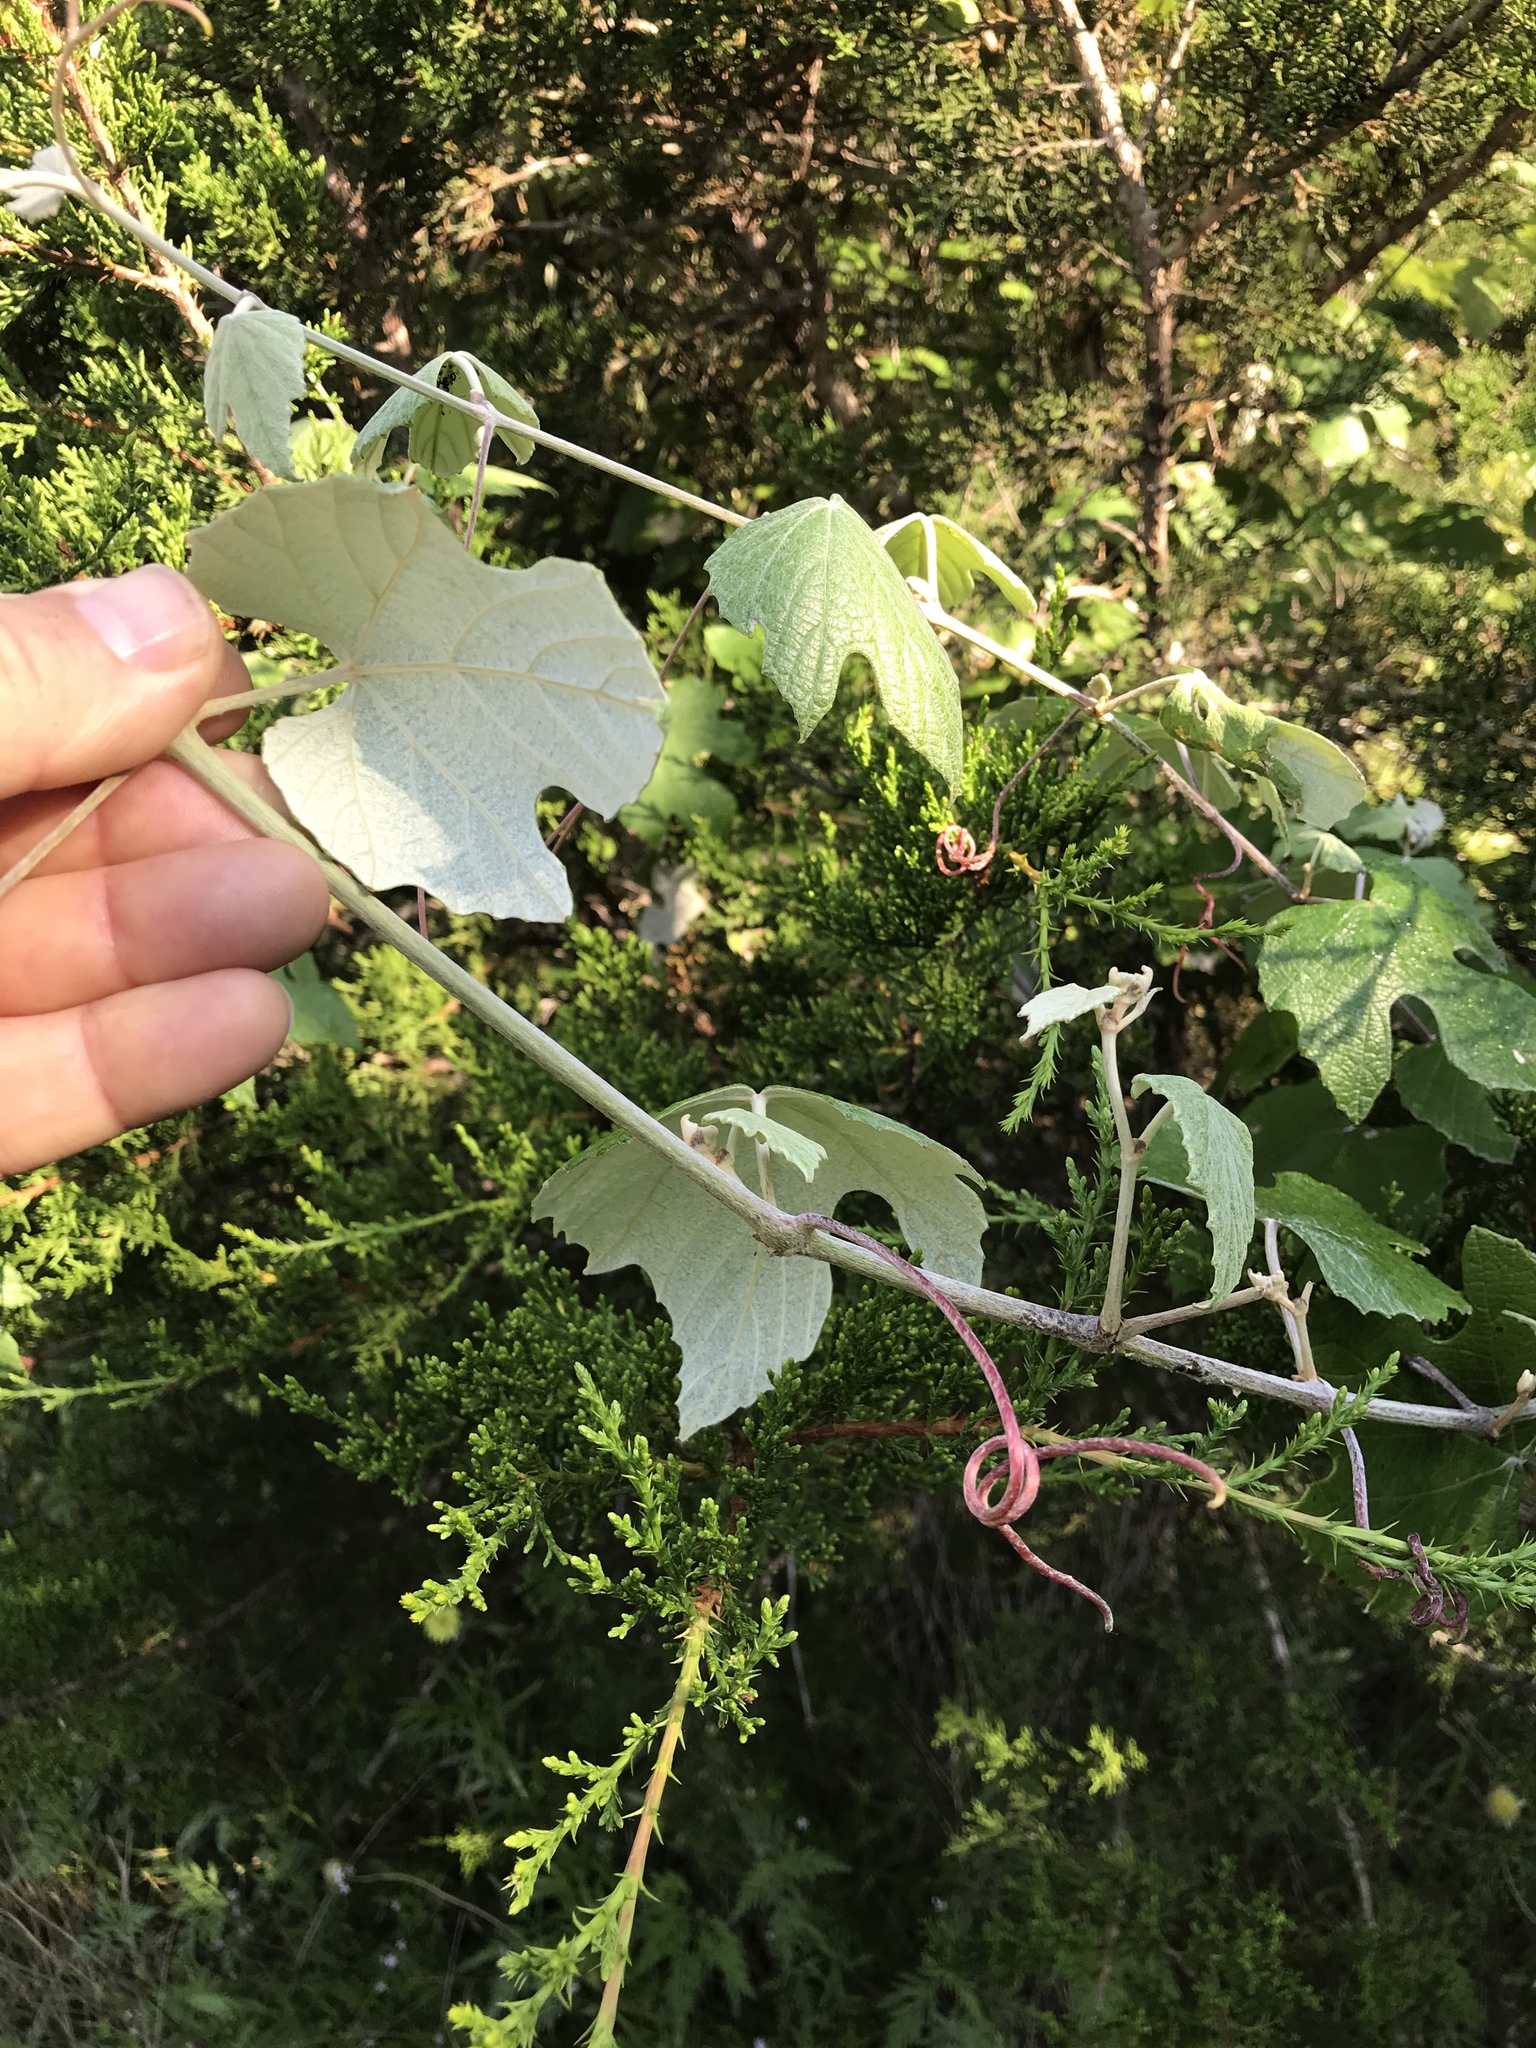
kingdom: Plantae
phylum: Tracheophyta
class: Magnoliopsida
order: Vitales
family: Vitaceae
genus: Vitis
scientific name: Vitis mustangensis
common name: Mustang grape
